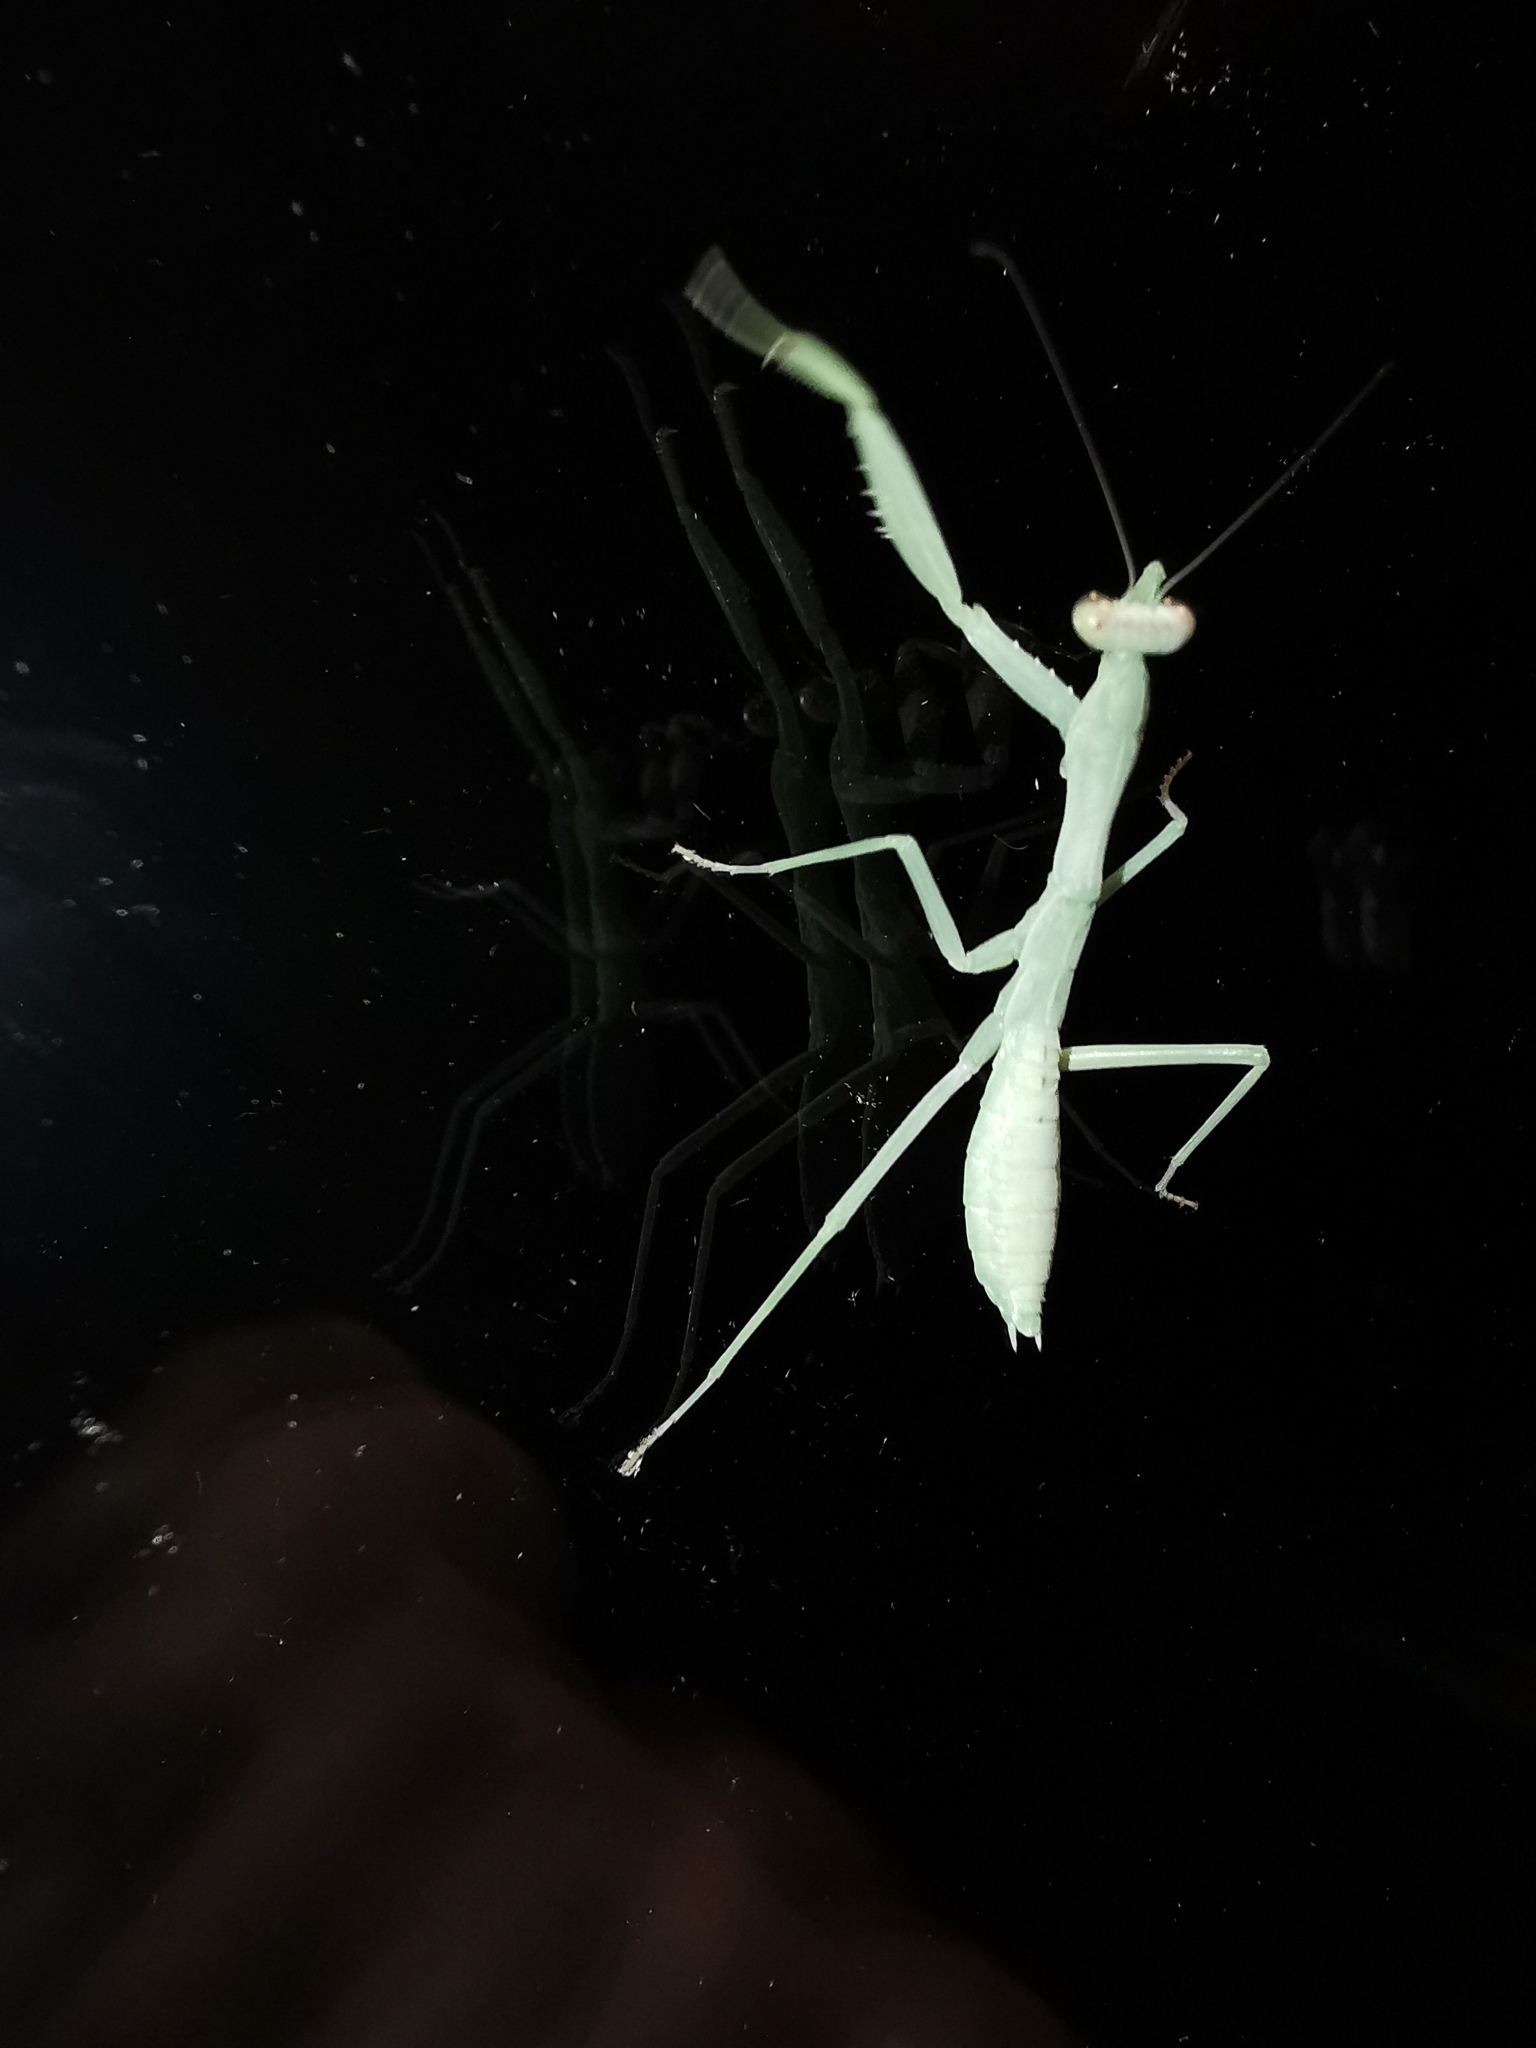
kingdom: Animalia
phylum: Arthropoda
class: Insecta
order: Mantodea
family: Mantidae
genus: Hierodula
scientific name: Hierodula transcaucasica
